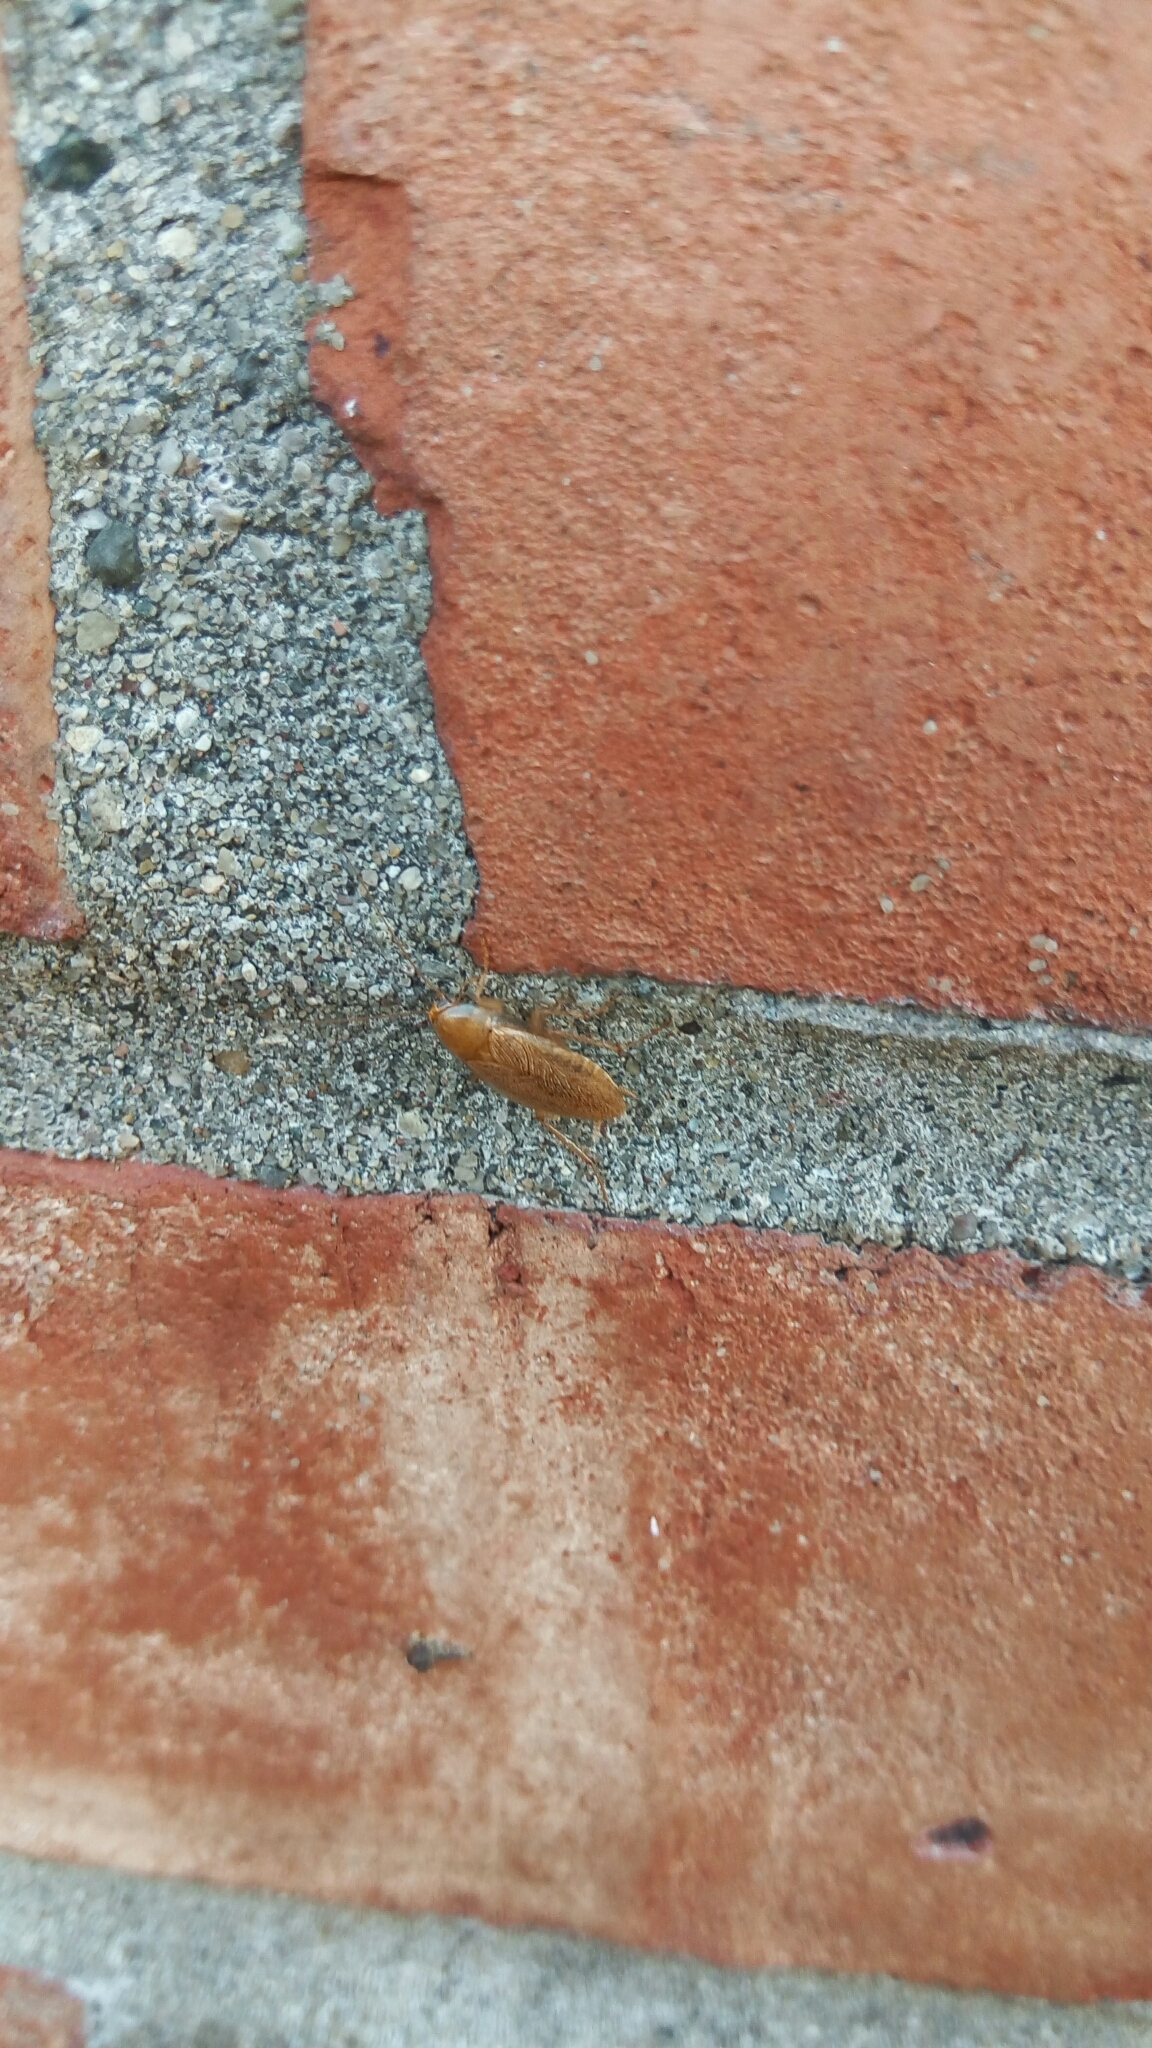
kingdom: Animalia
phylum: Arthropoda
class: Insecta
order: Blattodea
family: Ectobiidae
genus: Ectobius
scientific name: Ectobius pallidus
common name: Tawny cockroach
